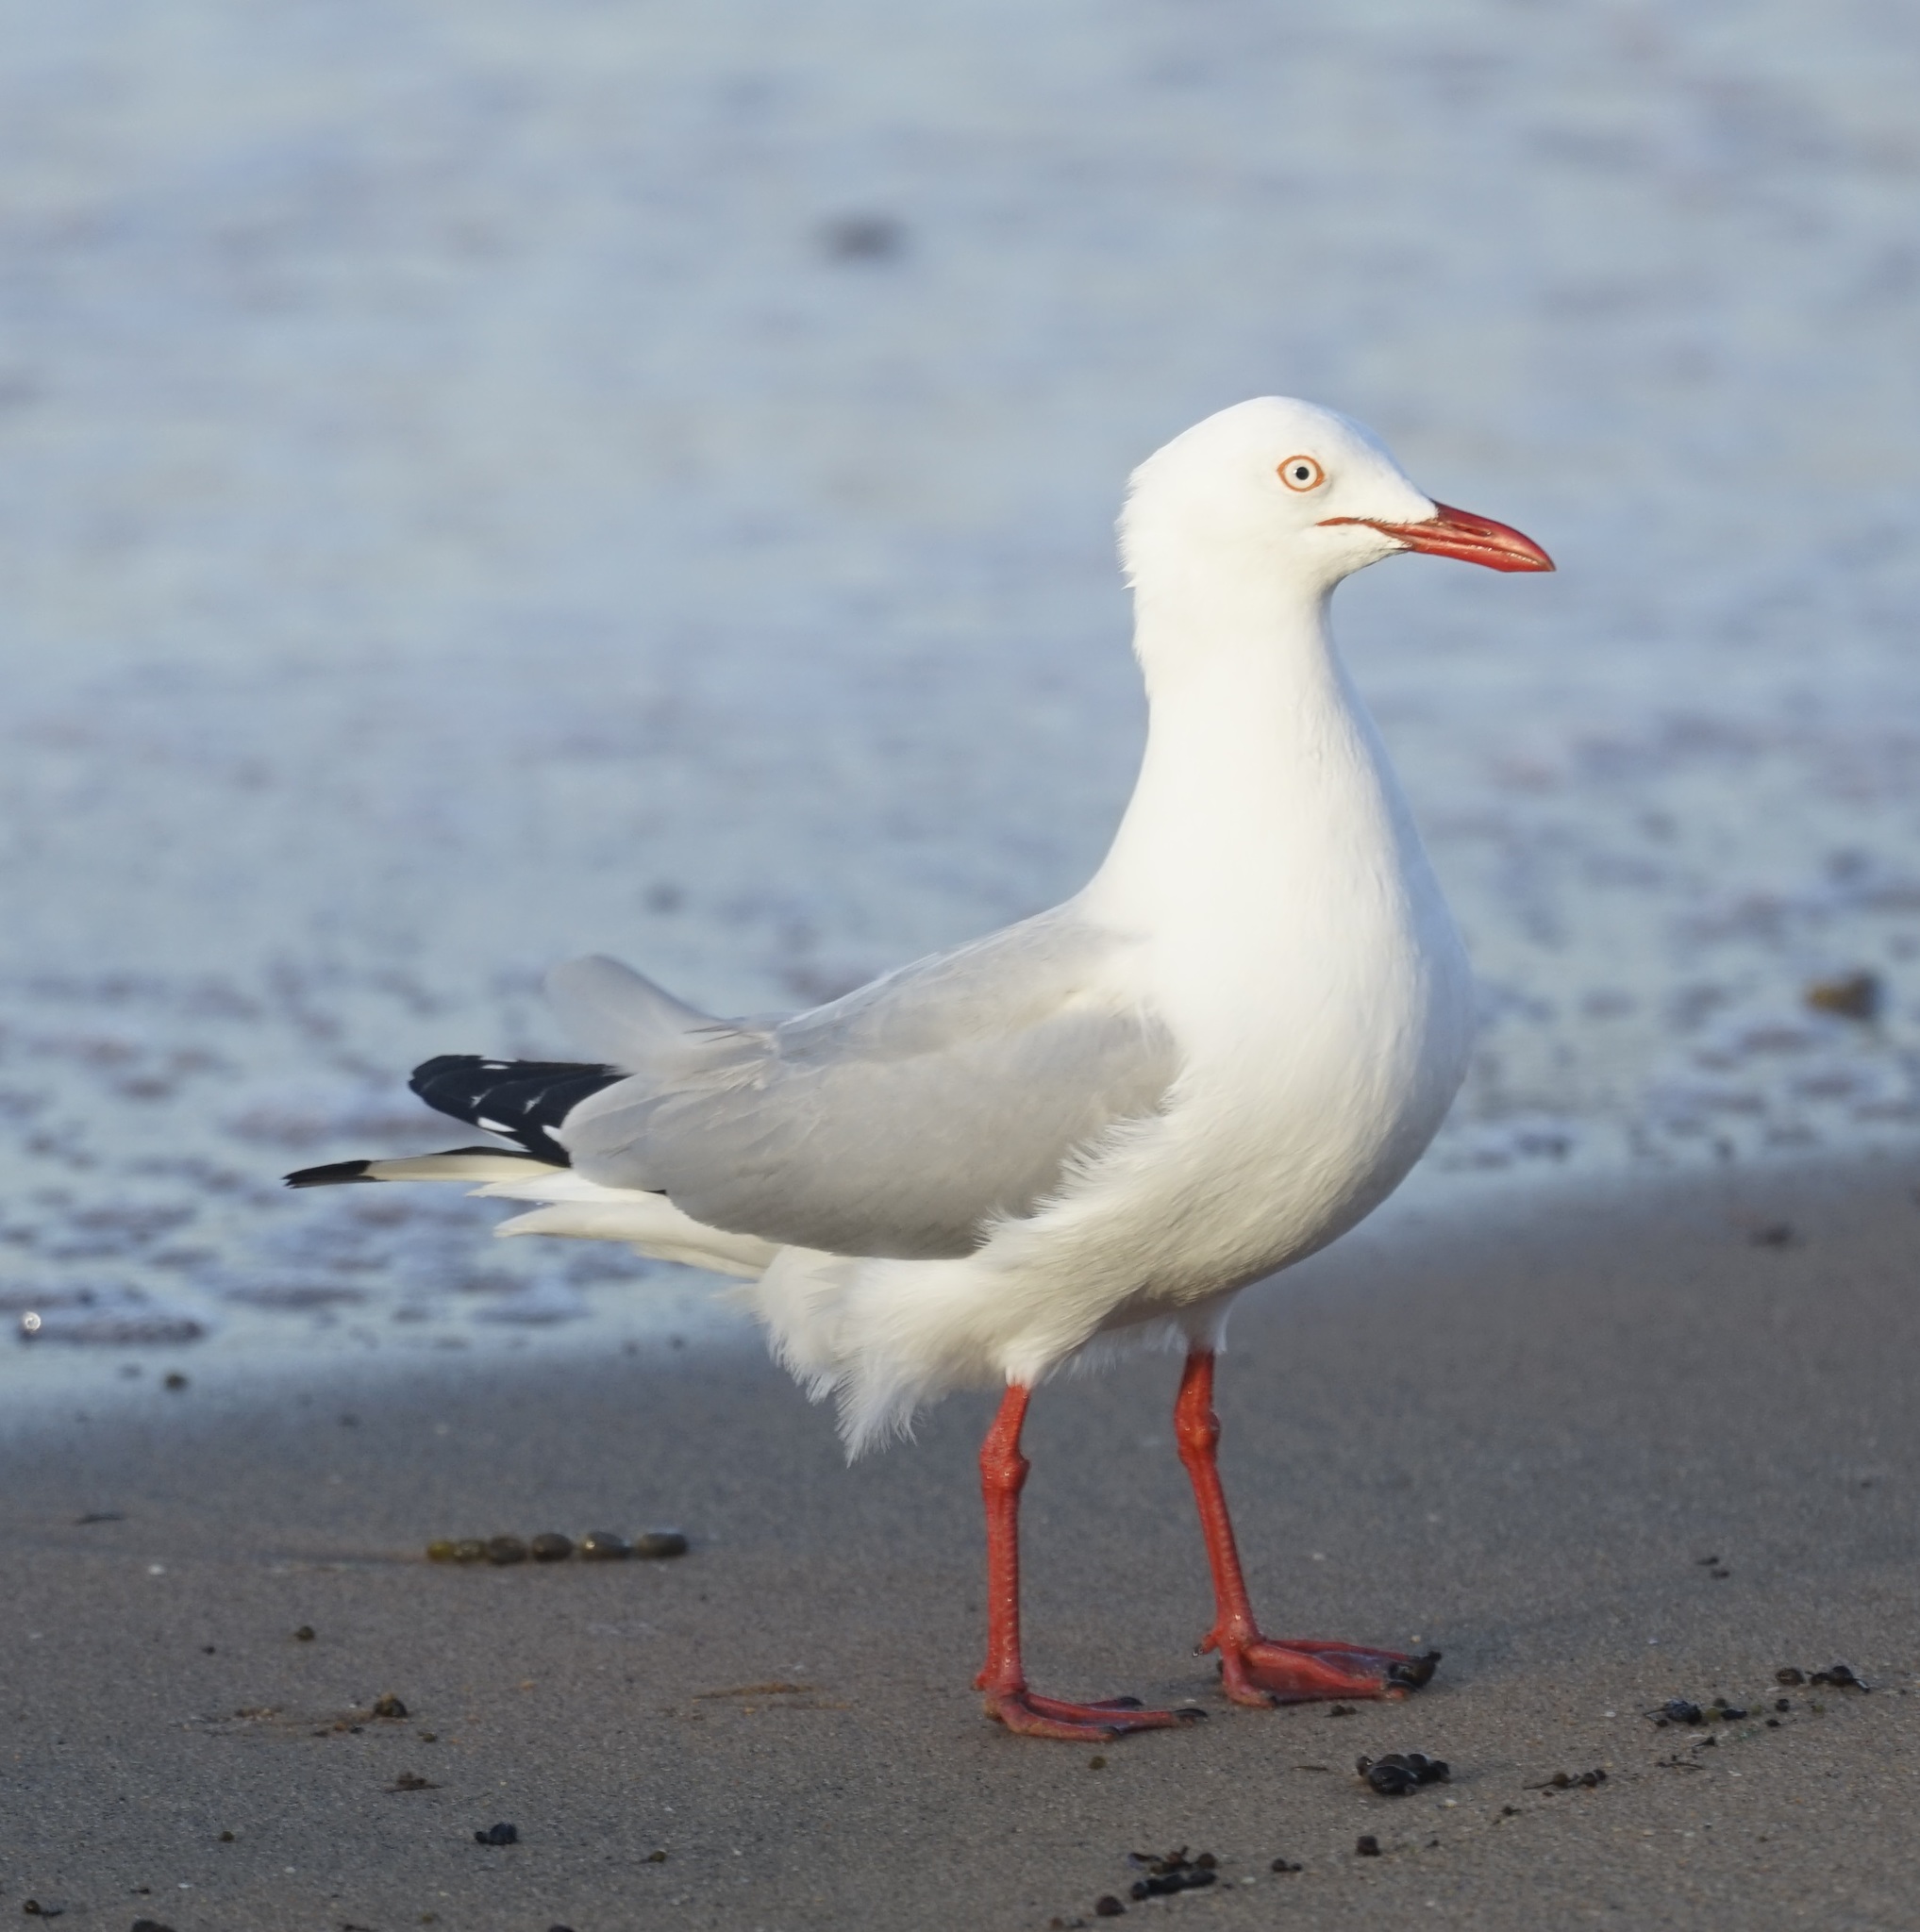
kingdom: Animalia
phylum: Chordata
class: Aves
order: Charadriiformes
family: Laridae
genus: Chroicocephalus
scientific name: Chroicocephalus novaehollandiae
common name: Silver gull
